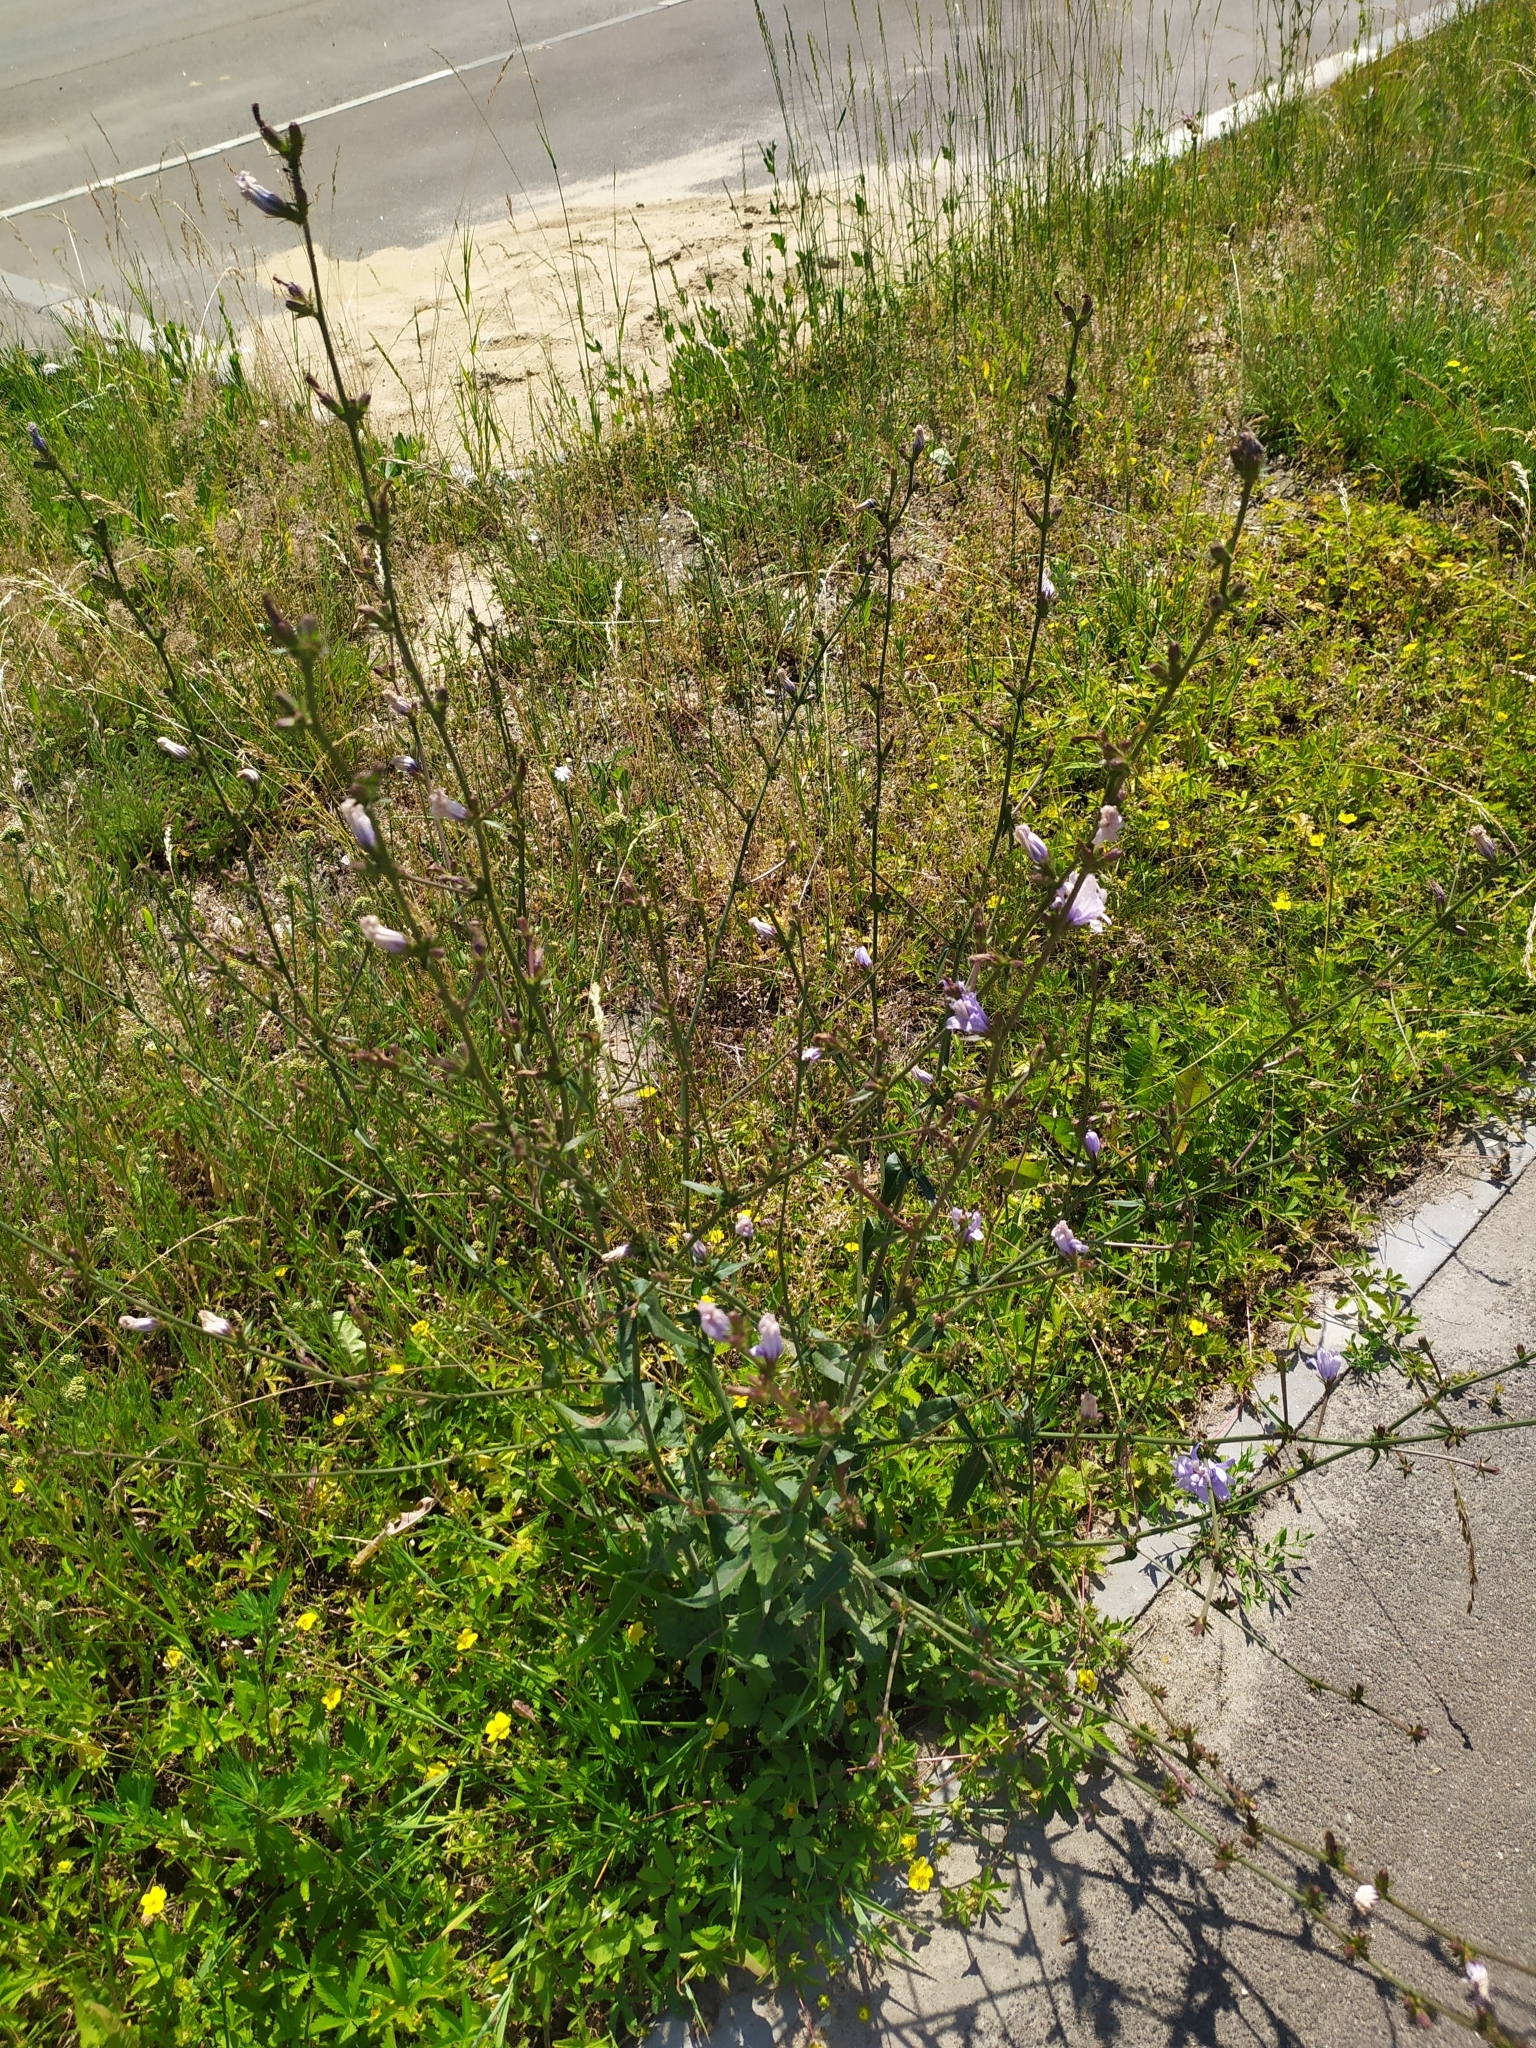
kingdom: Plantae
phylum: Tracheophyta
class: Magnoliopsida
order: Asterales
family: Asteraceae
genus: Cichorium
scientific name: Cichorium intybus
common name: Chicory
